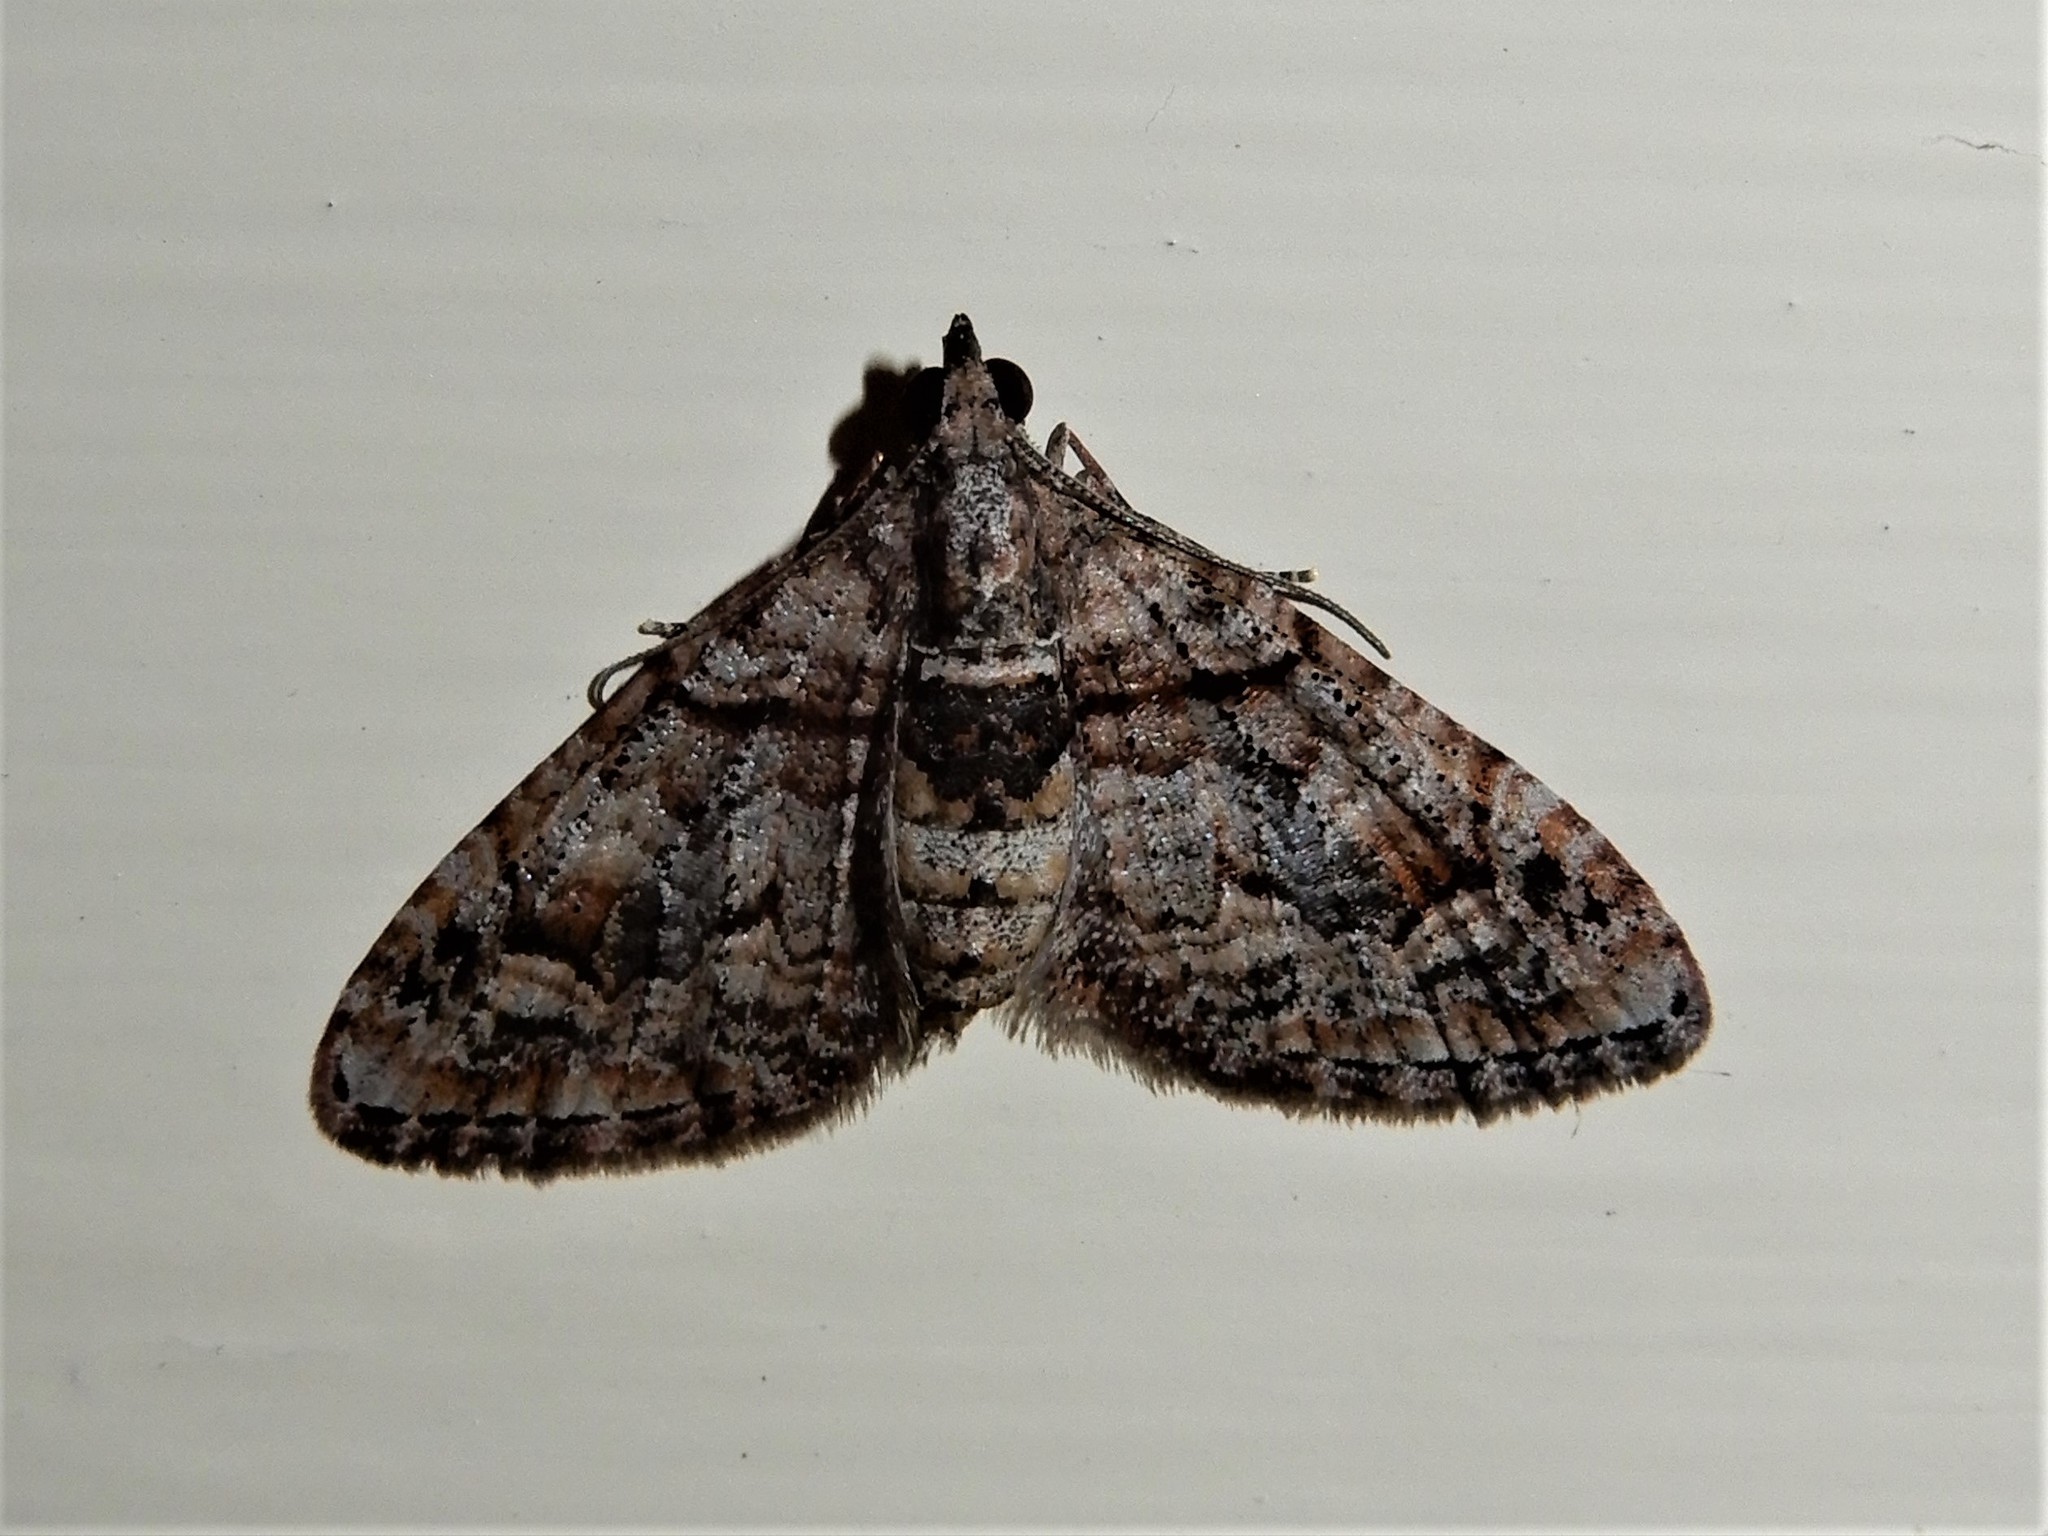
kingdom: Animalia
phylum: Arthropoda
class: Insecta
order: Lepidoptera
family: Geometridae
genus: Phrissogonus
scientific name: Phrissogonus laticostata
